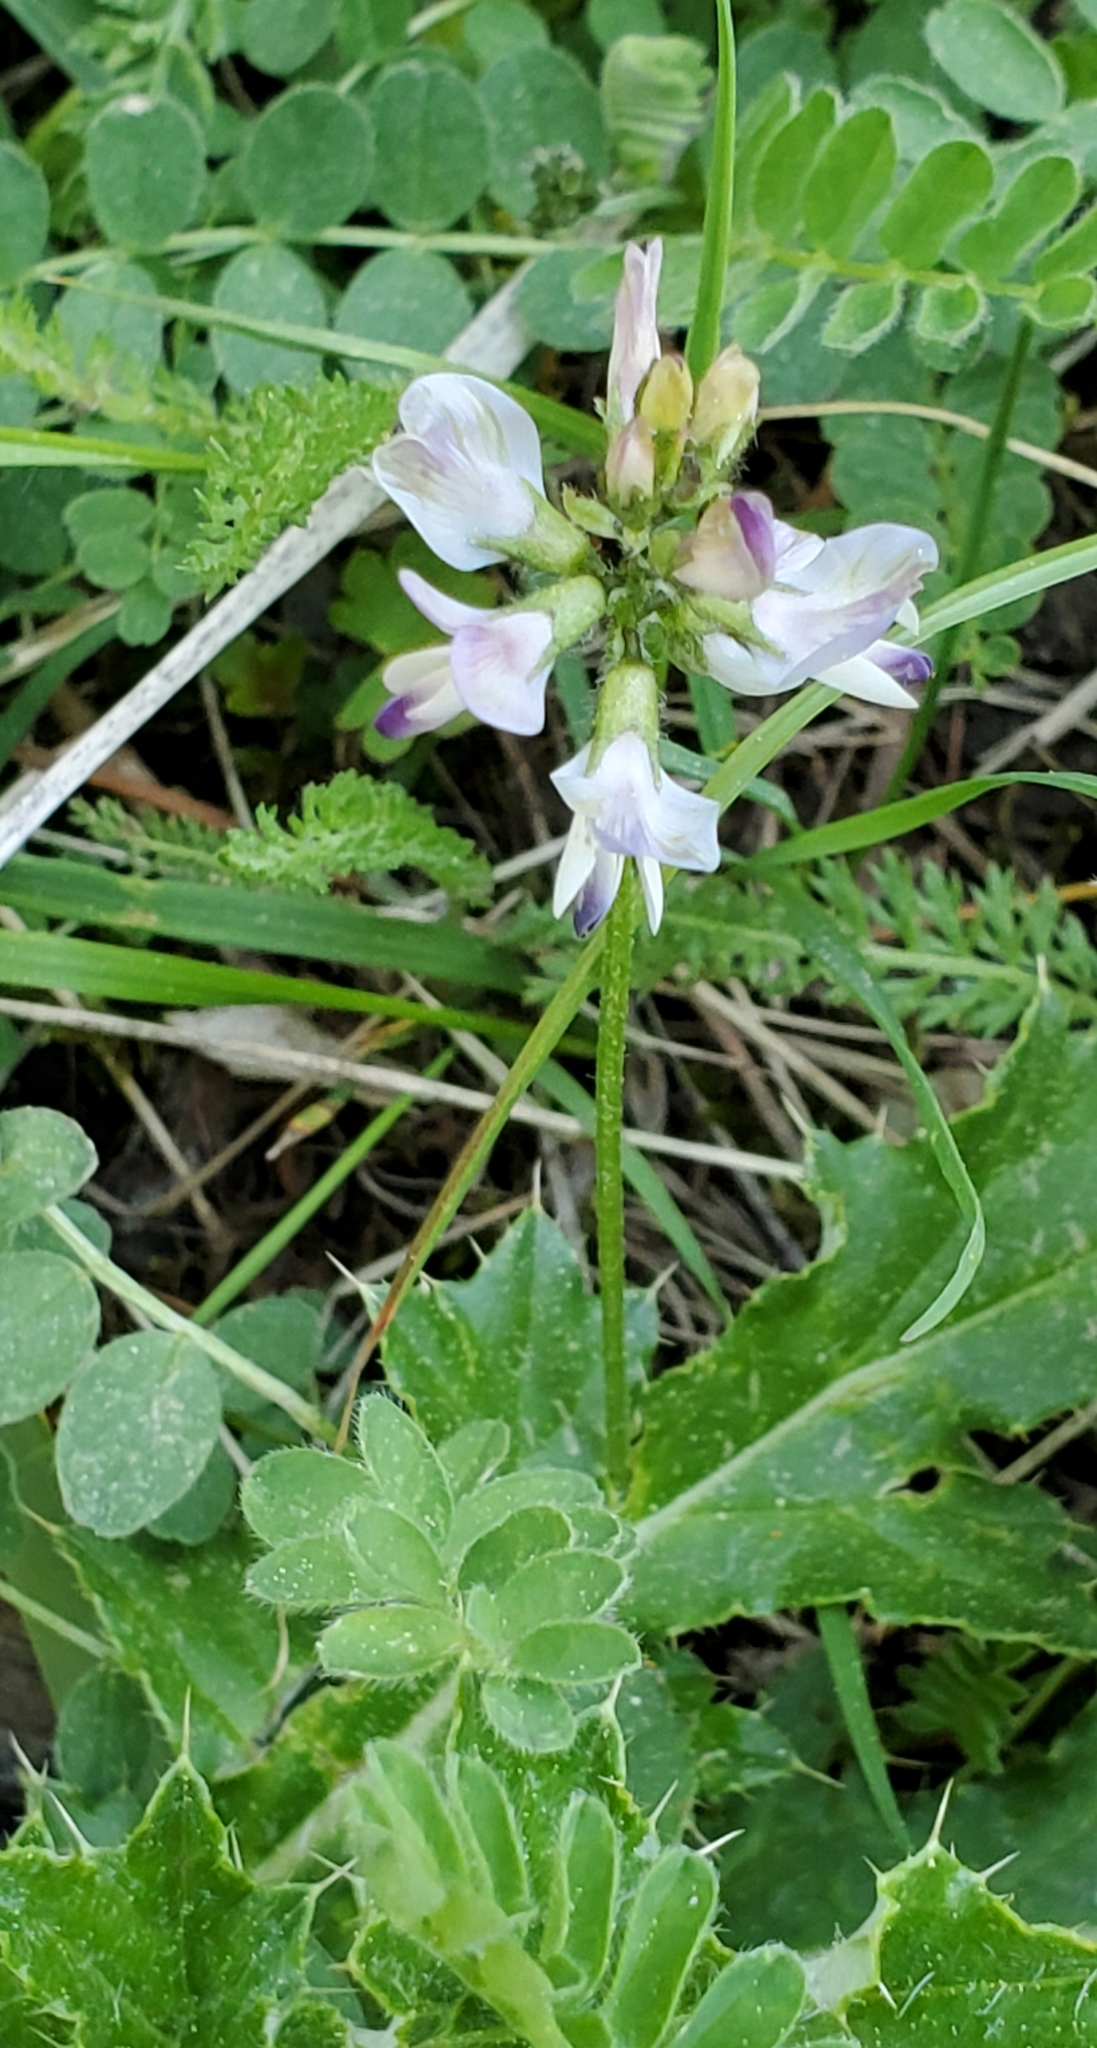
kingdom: Plantae
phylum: Tracheophyta
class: Magnoliopsida
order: Fabales
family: Fabaceae
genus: Astragalus
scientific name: Astragalus alpinus
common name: Alpine milk-vetch
